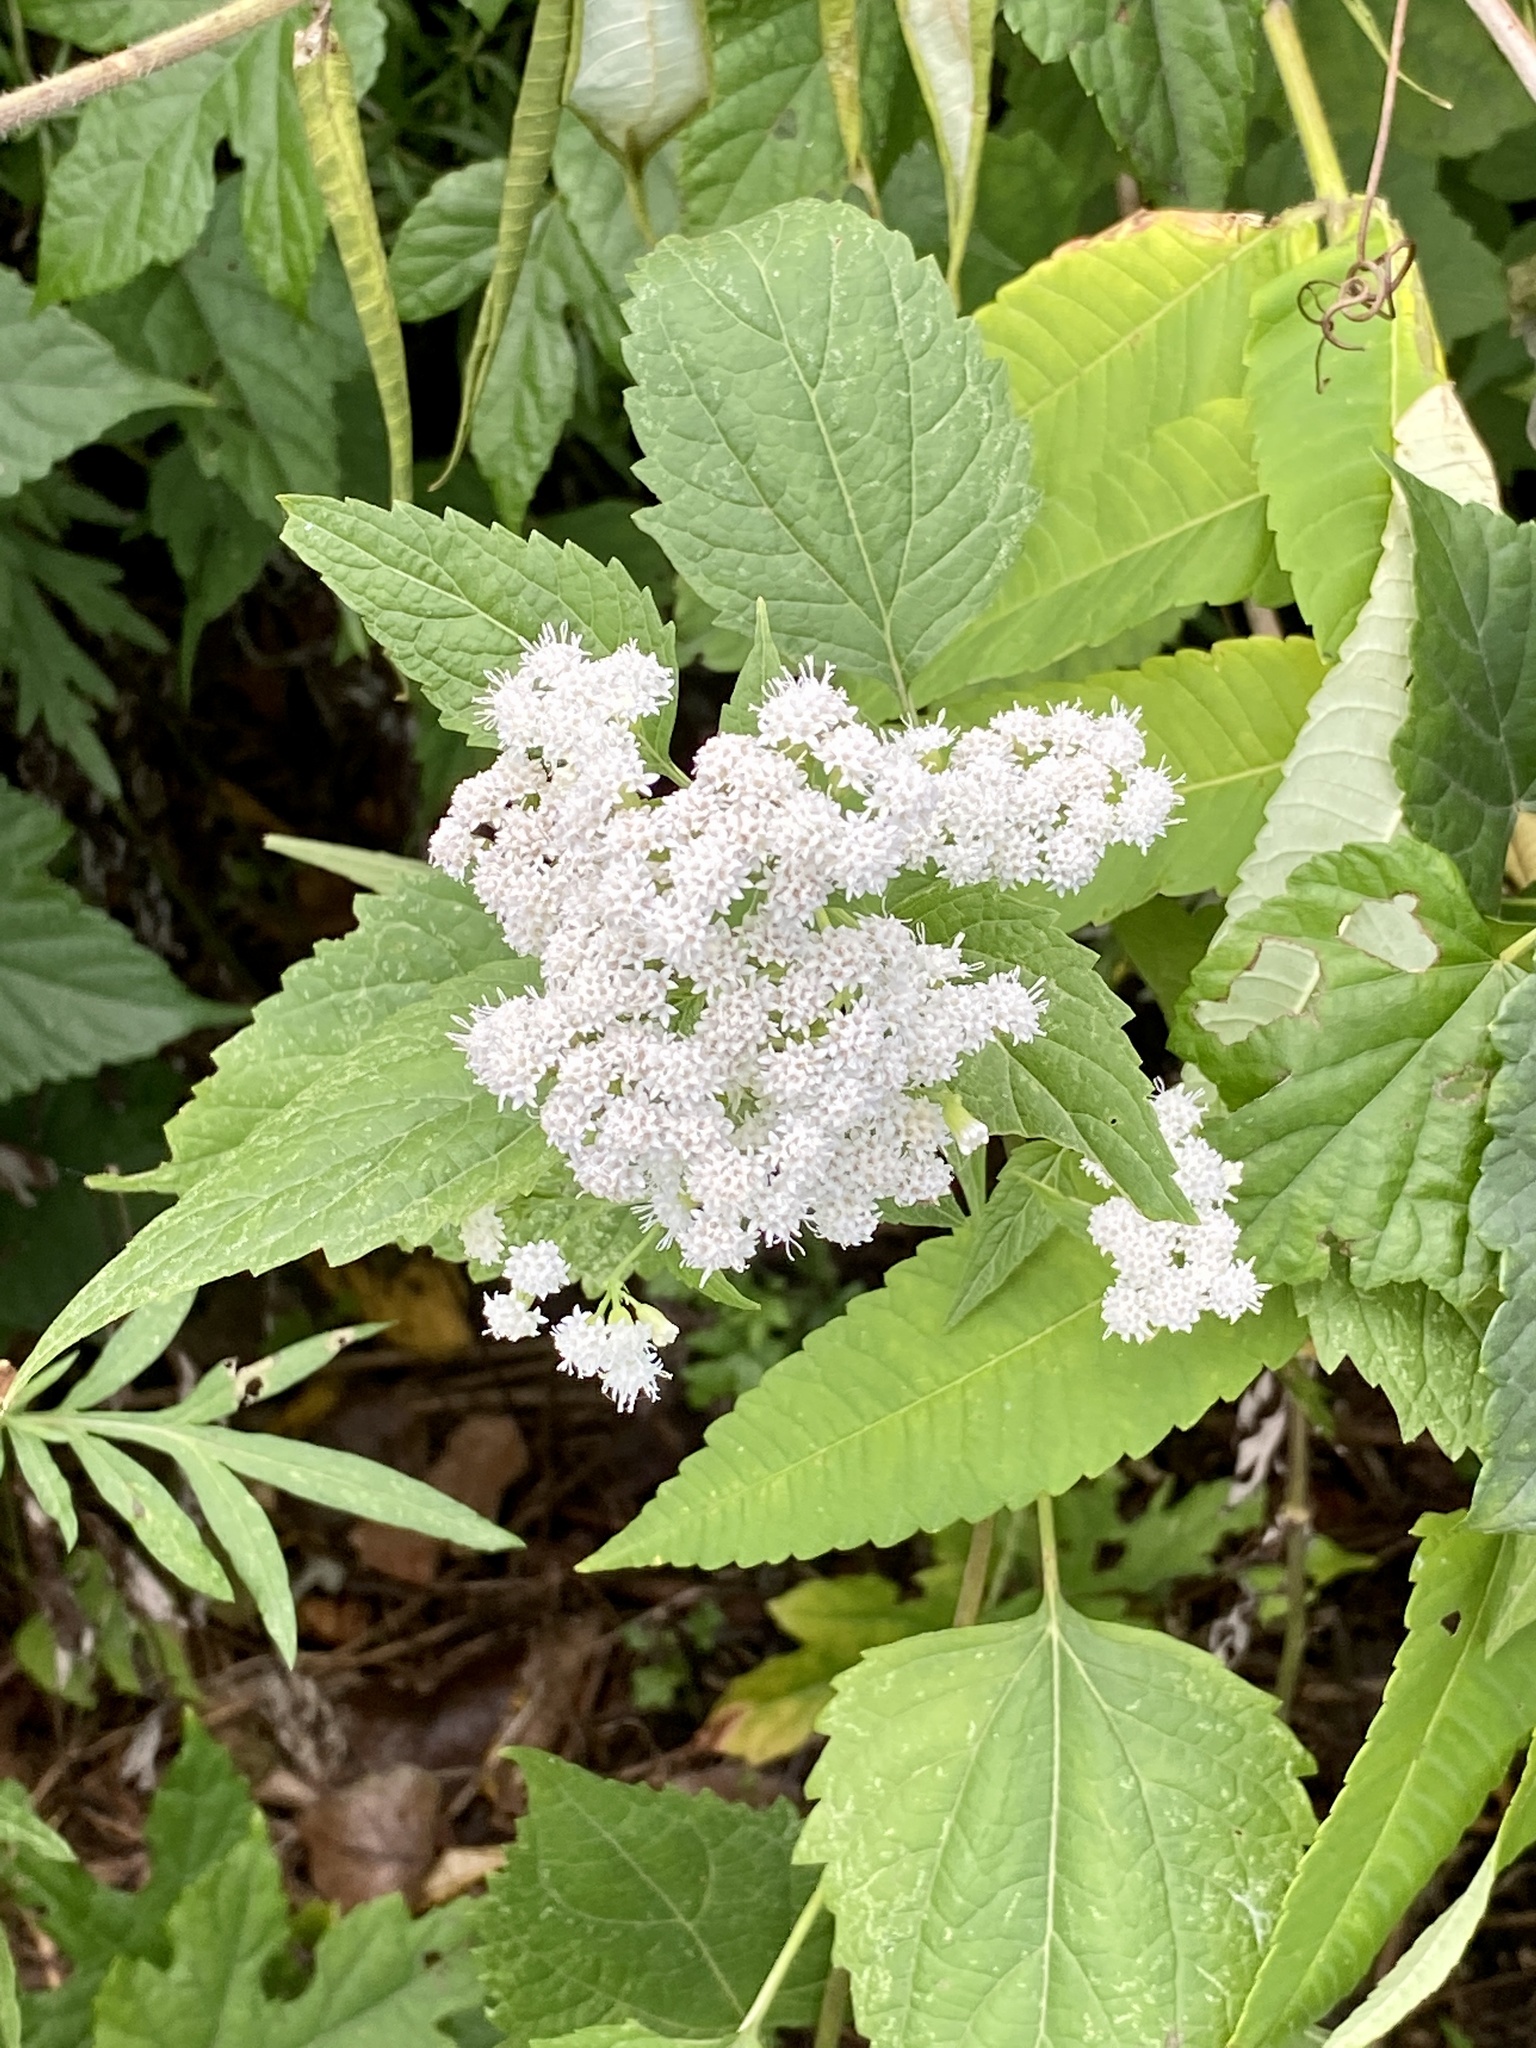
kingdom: Plantae
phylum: Tracheophyta
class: Magnoliopsida
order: Asterales
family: Asteraceae
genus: Ageratina
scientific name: Ageratina altissima
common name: White snakeroot
